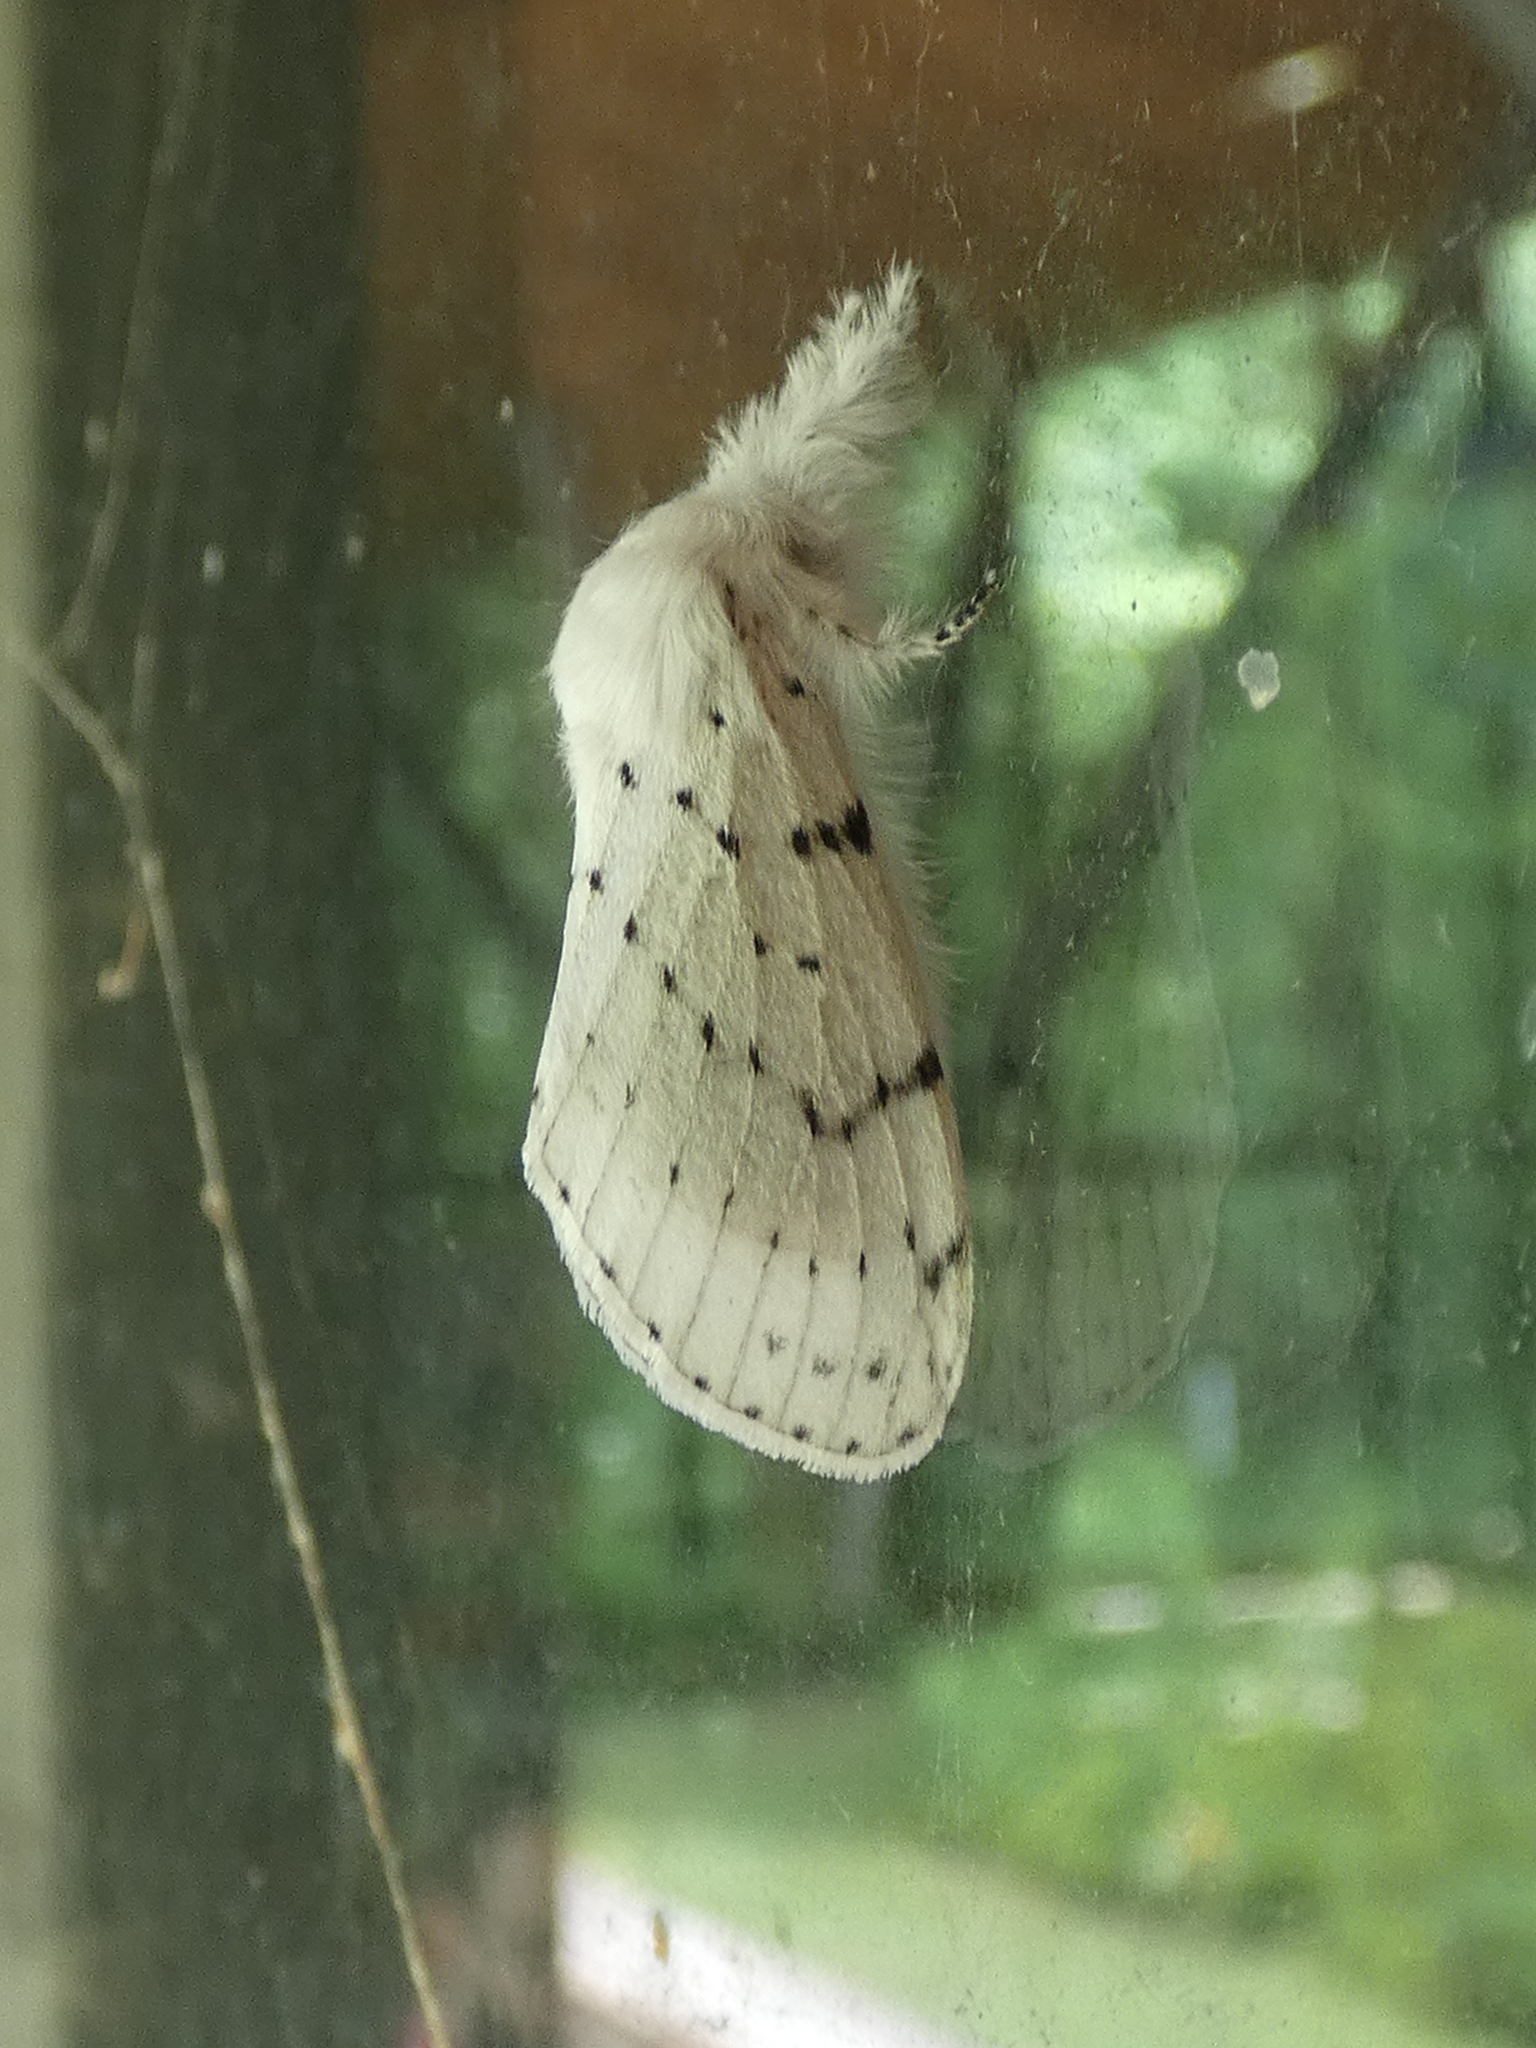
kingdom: Animalia
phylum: Arthropoda
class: Insecta
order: Lepidoptera
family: Lasiocampidae
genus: Artace
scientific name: Artace cribrarius
